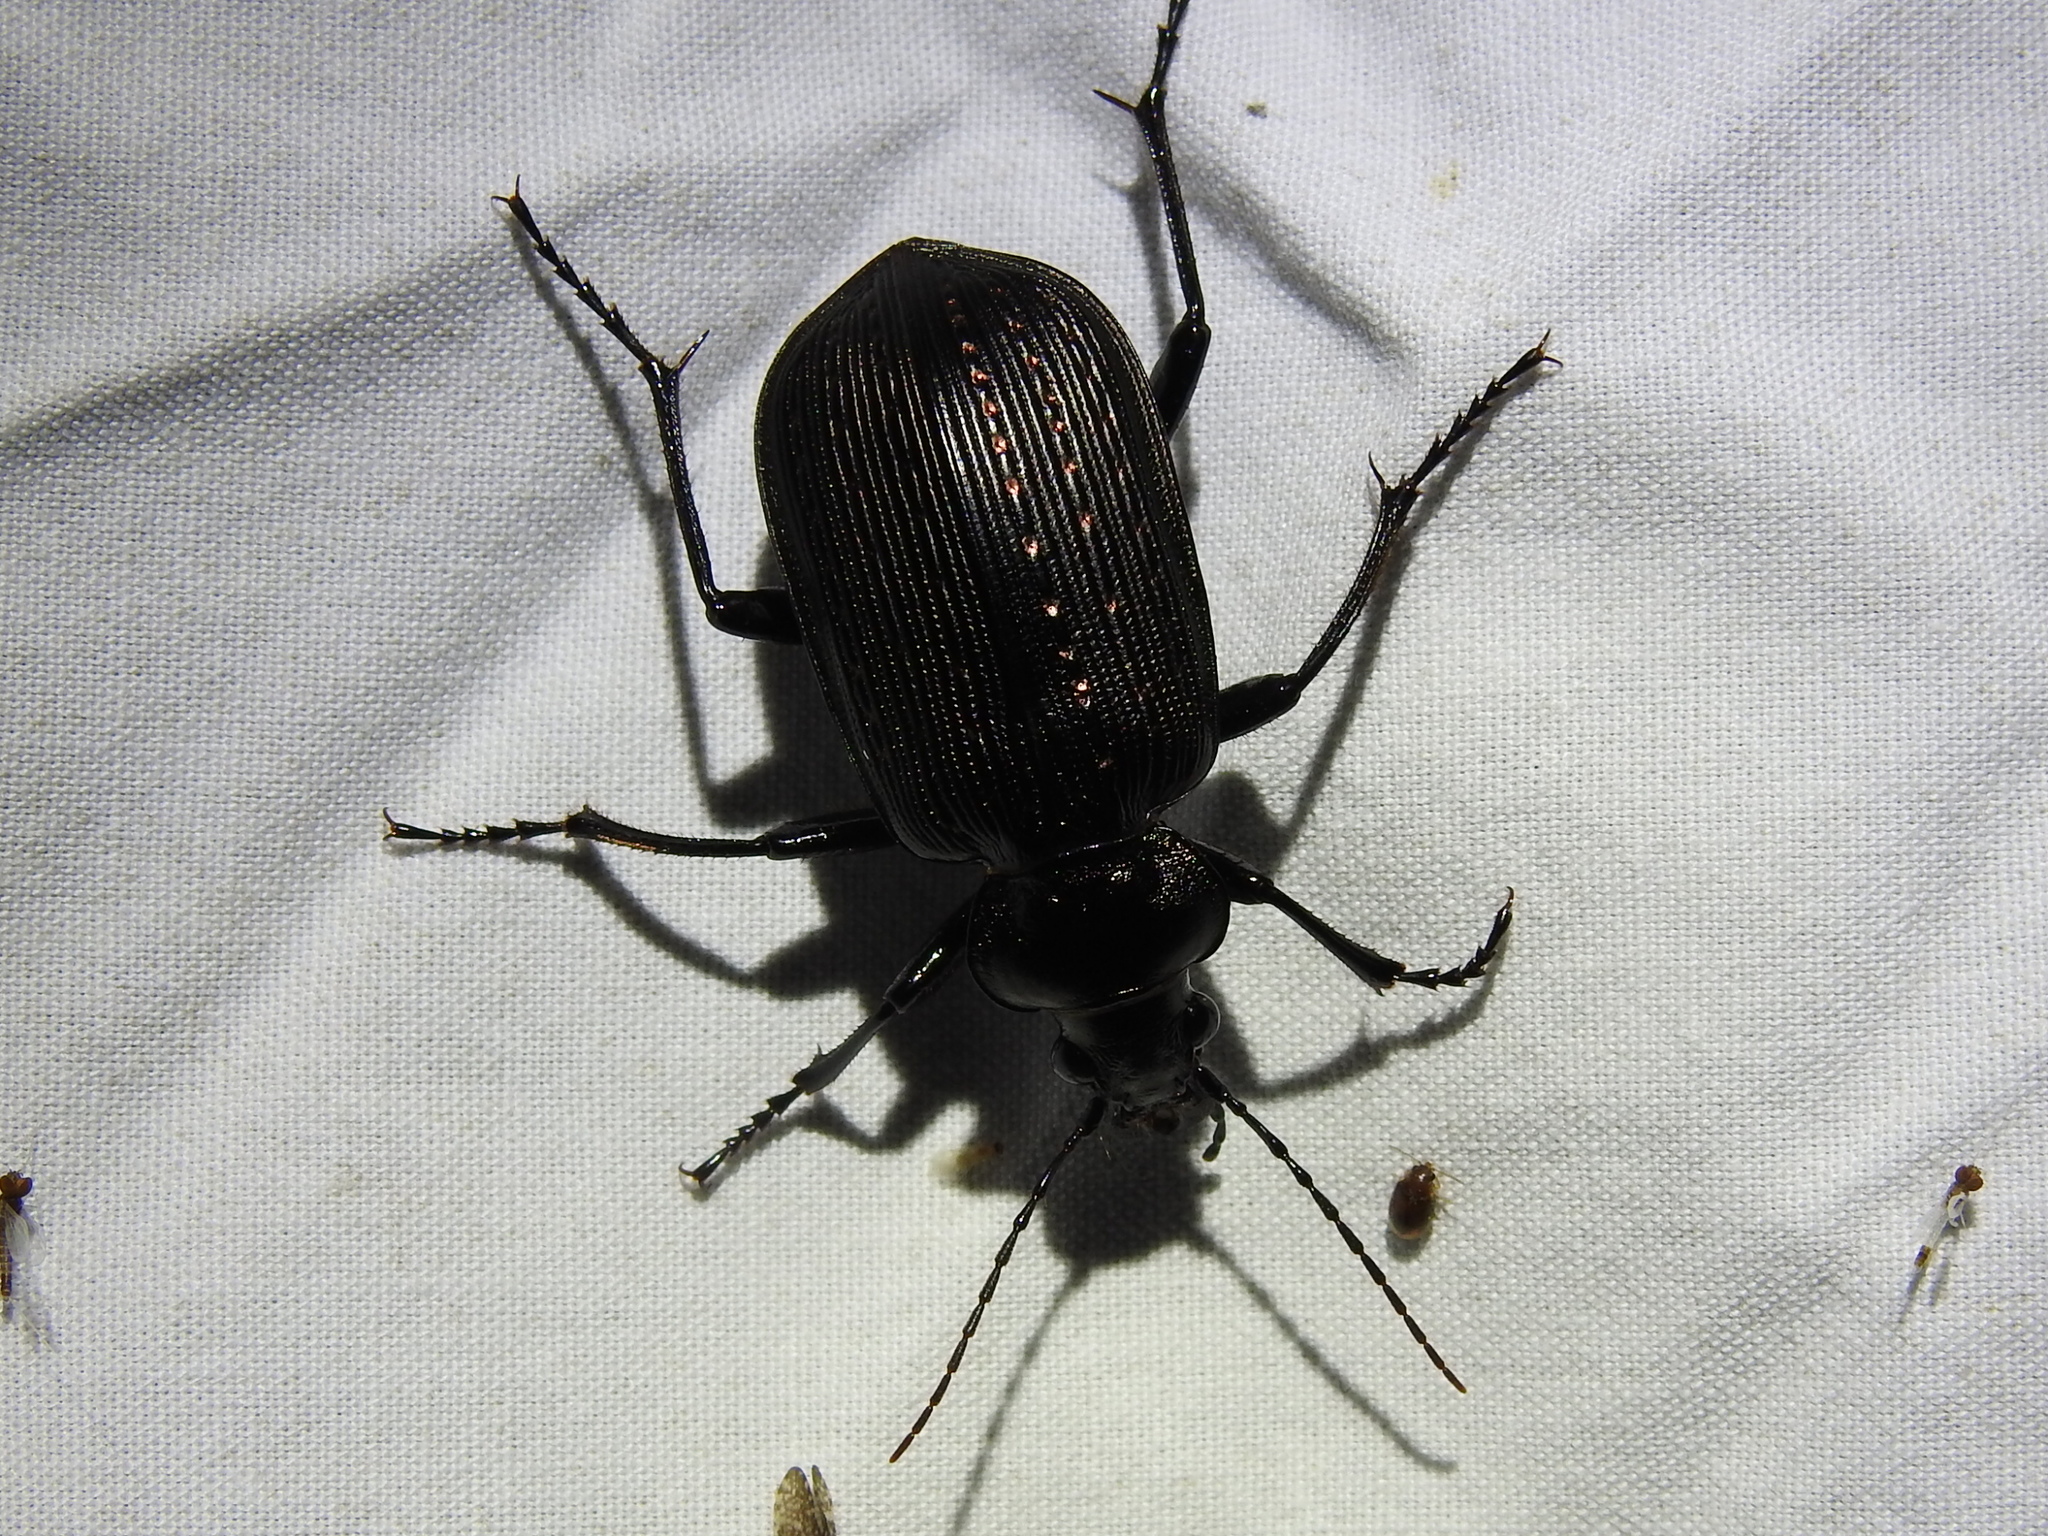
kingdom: Animalia
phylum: Arthropoda
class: Insecta
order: Coleoptera
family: Carabidae
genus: Calosoma
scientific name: Calosoma sayi
